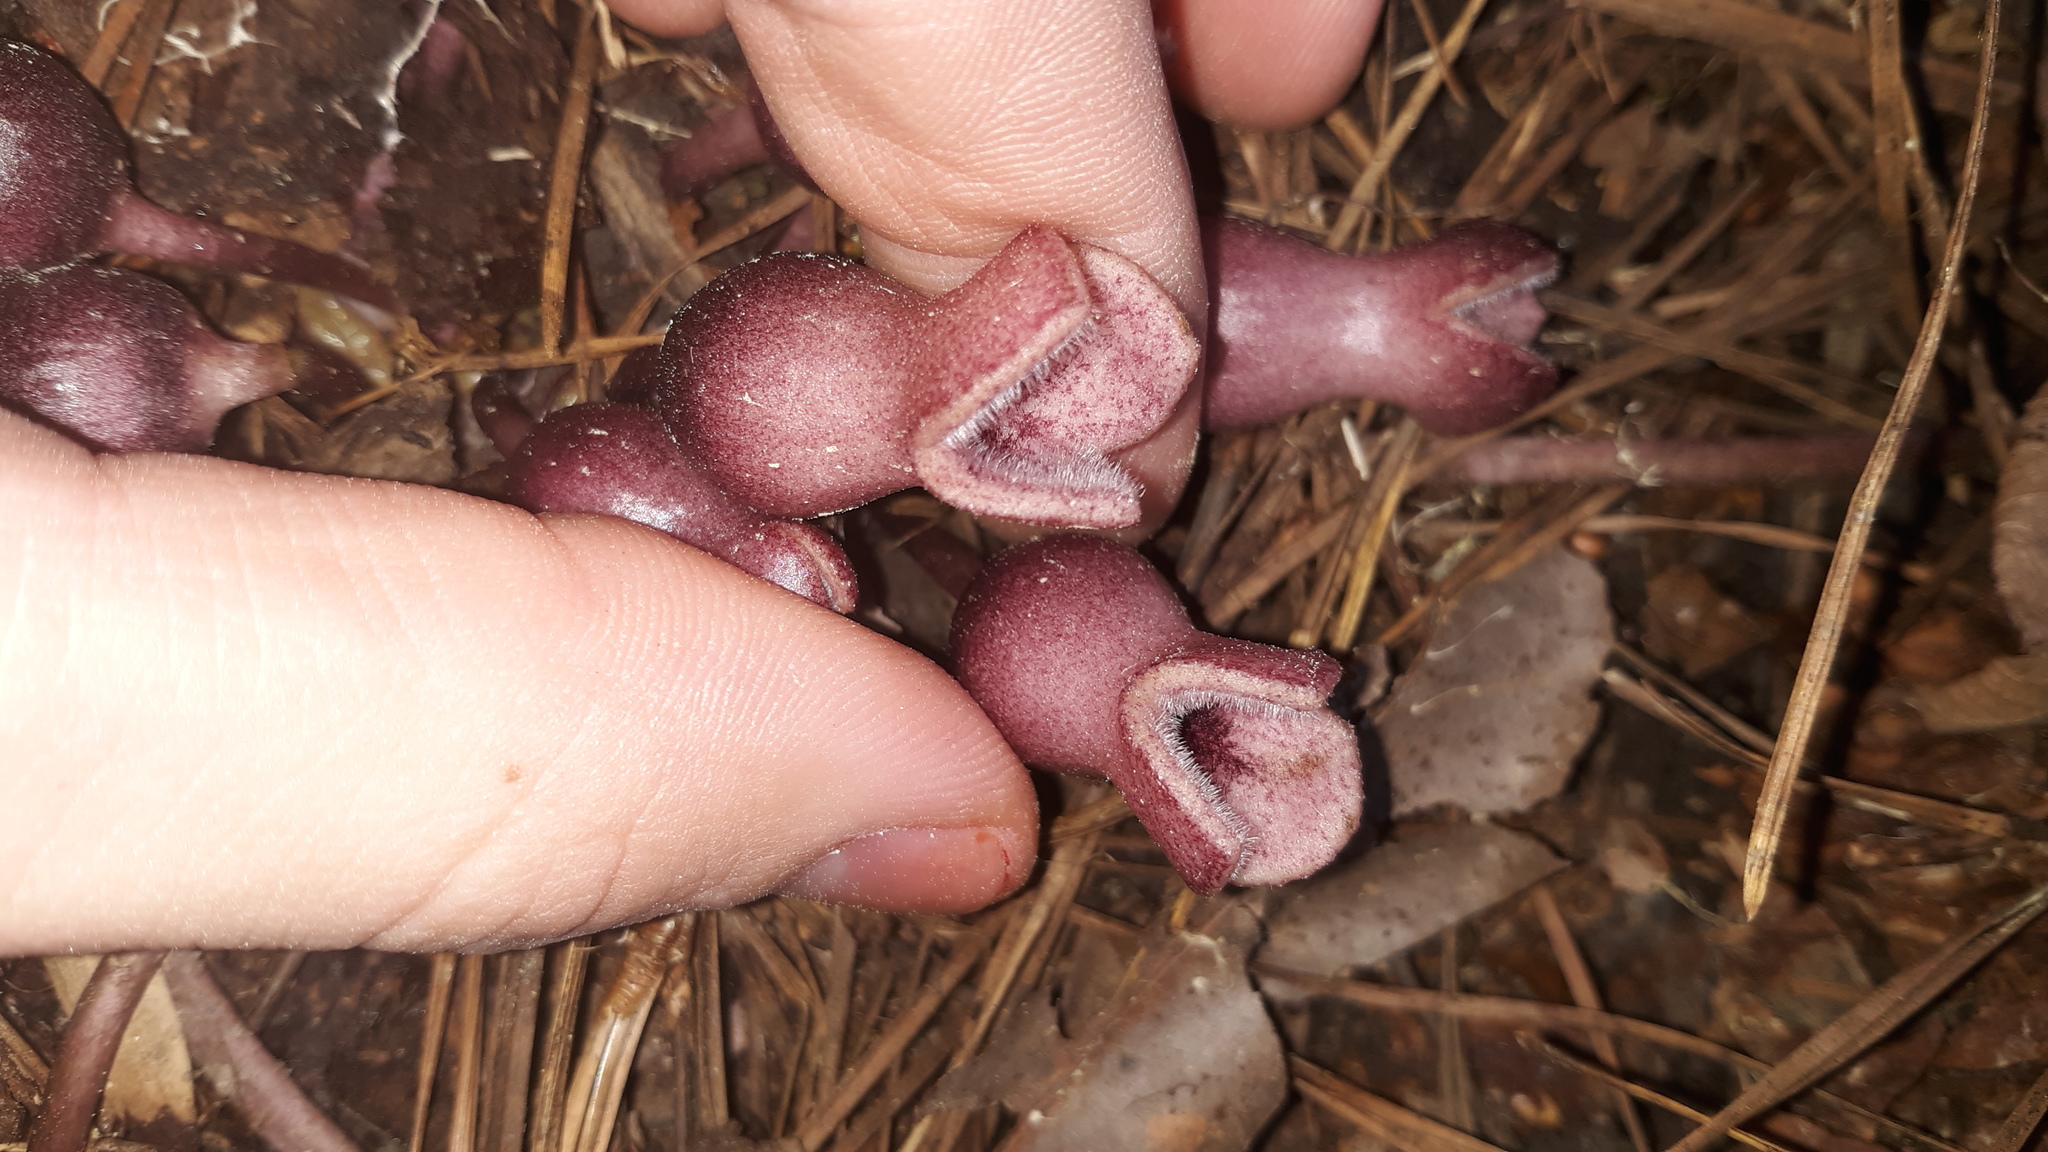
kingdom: Plantae
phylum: Tracheophyta
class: Magnoliopsida
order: Piperales
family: Aristolochiaceae
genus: Hexastylis
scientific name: Hexastylis arifolia
